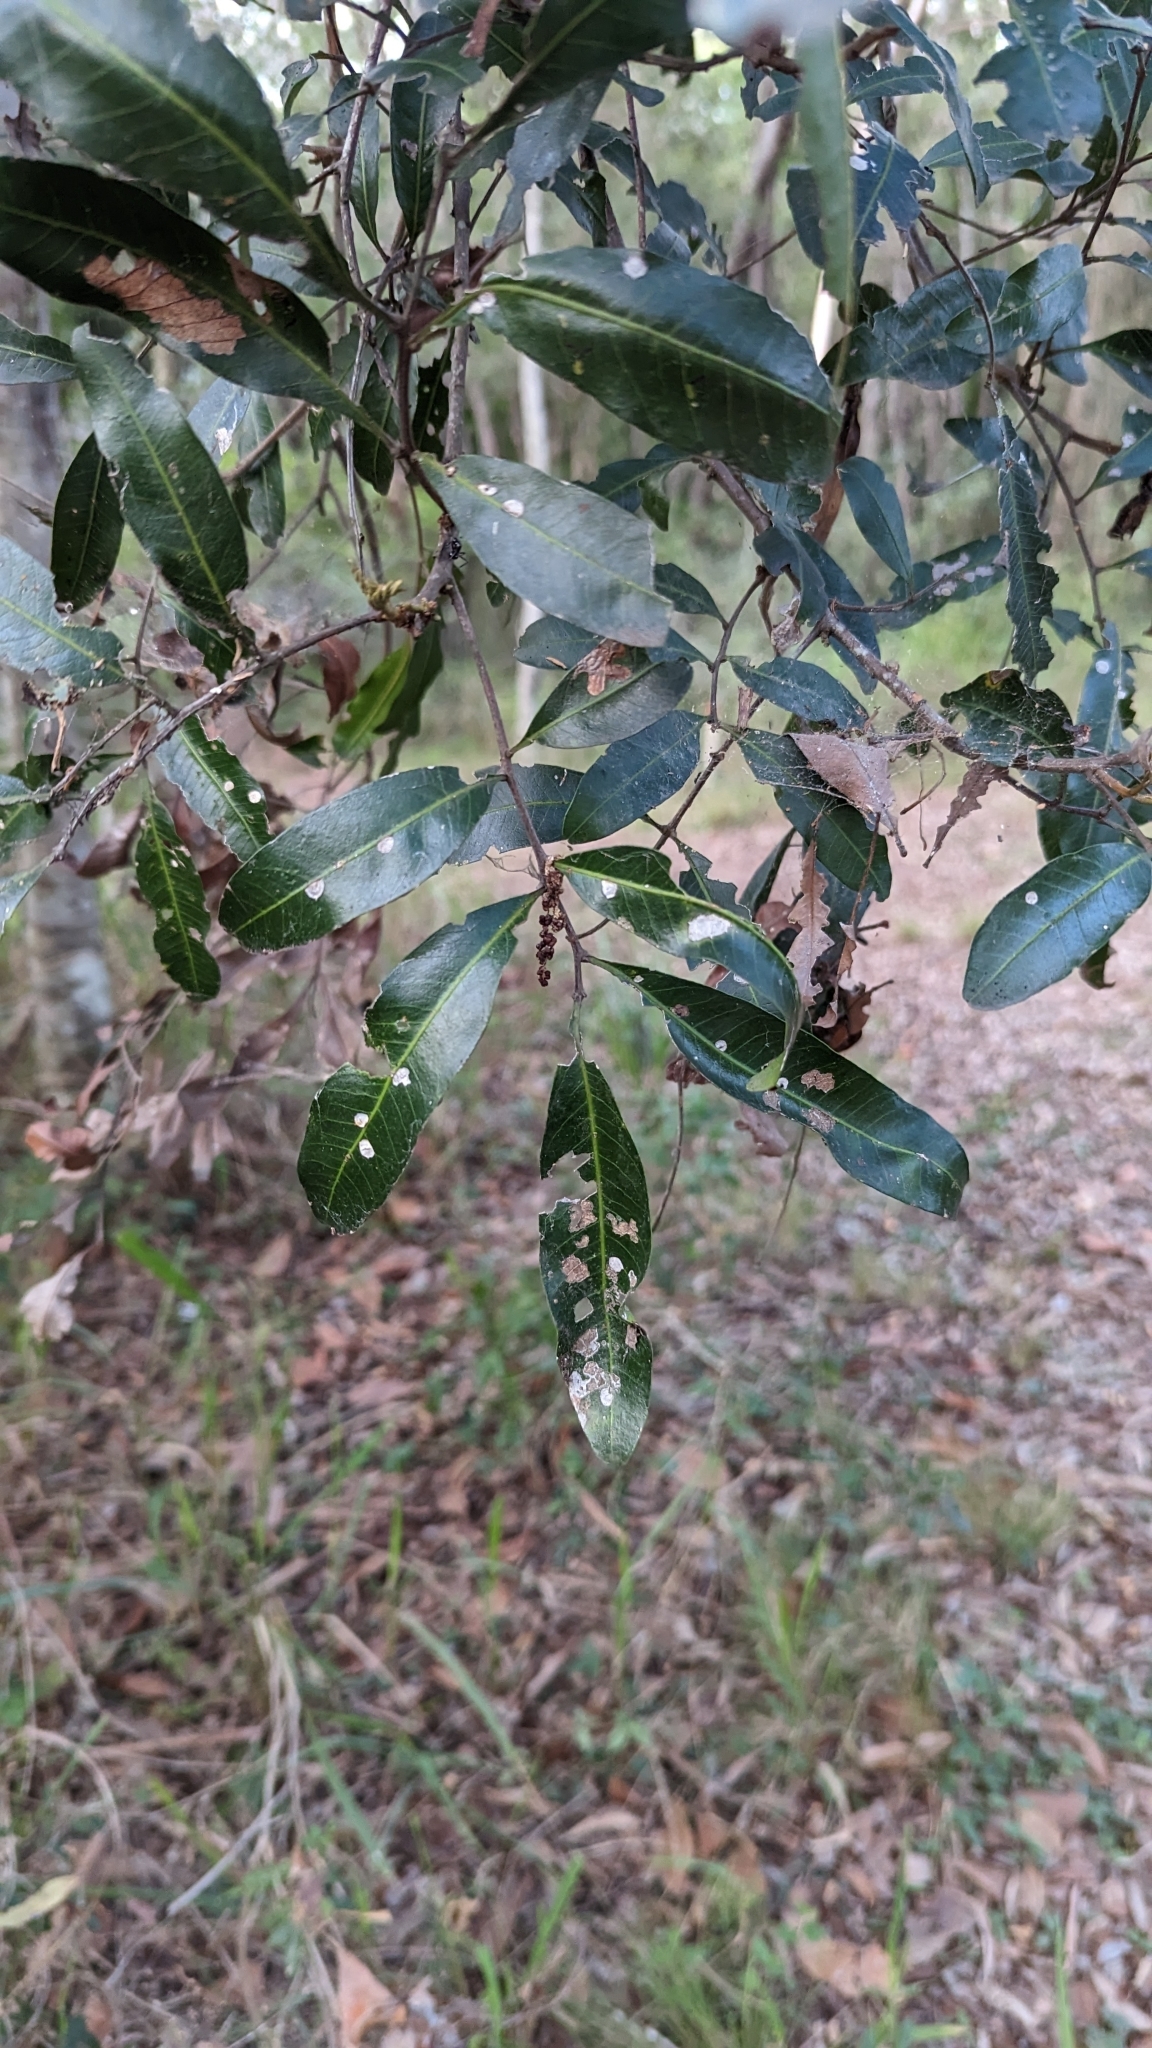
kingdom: Plantae
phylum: Tracheophyta
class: Magnoliopsida
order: Sapindales
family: Sapindaceae
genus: Cupaniopsis
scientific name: Cupaniopsis parvifolia
